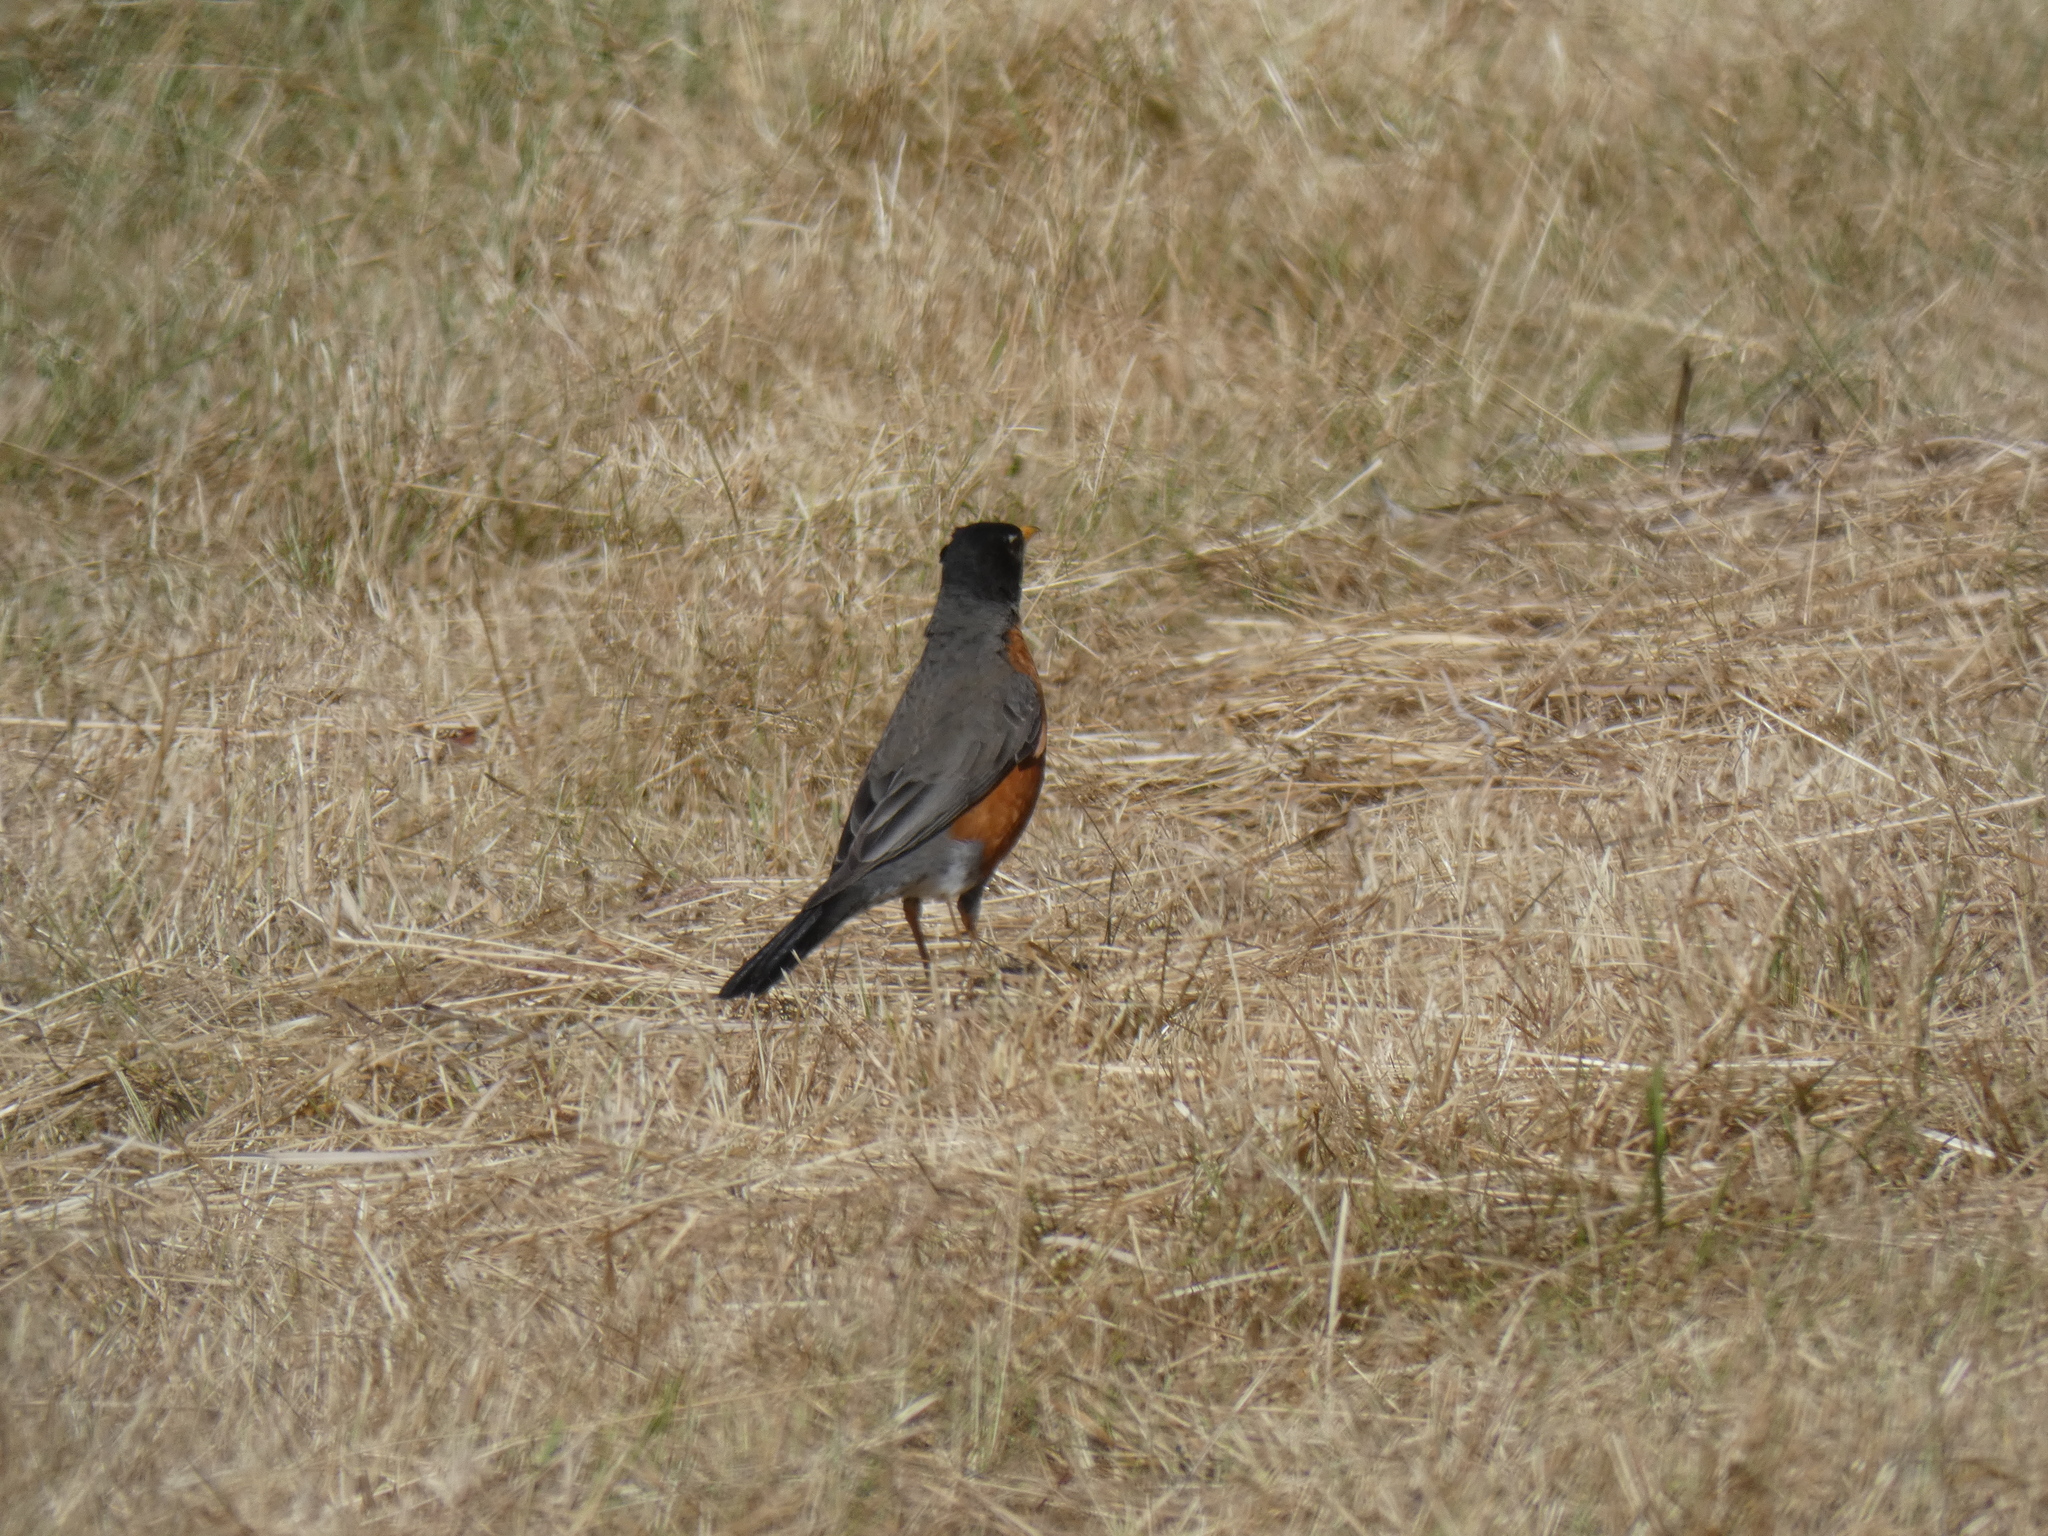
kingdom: Animalia
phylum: Chordata
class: Aves
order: Passeriformes
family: Turdidae
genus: Turdus
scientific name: Turdus migratorius
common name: American robin
